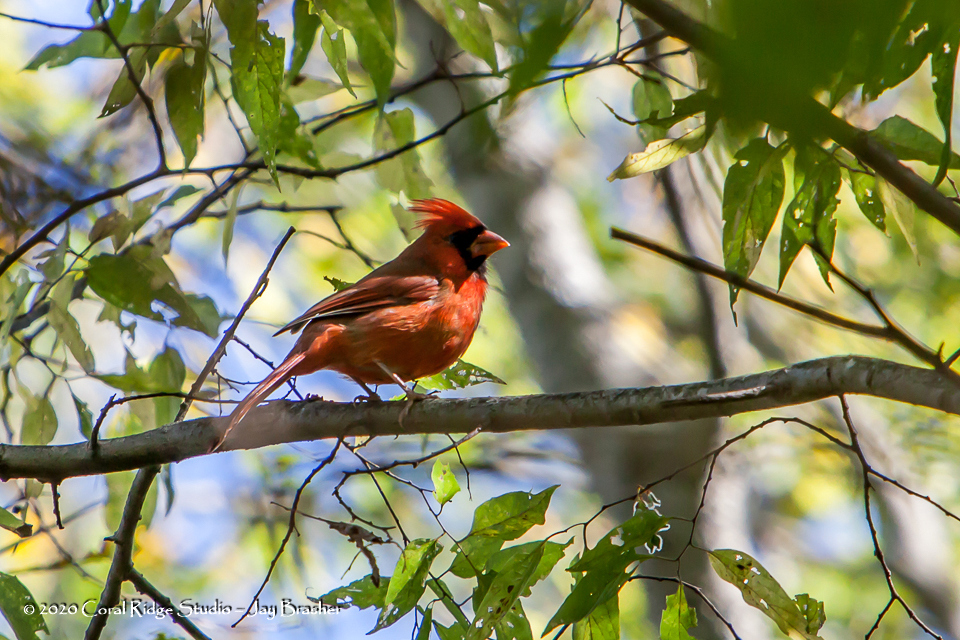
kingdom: Animalia
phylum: Chordata
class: Aves
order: Passeriformes
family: Cardinalidae
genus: Cardinalis
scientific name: Cardinalis cardinalis
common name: Northern cardinal
